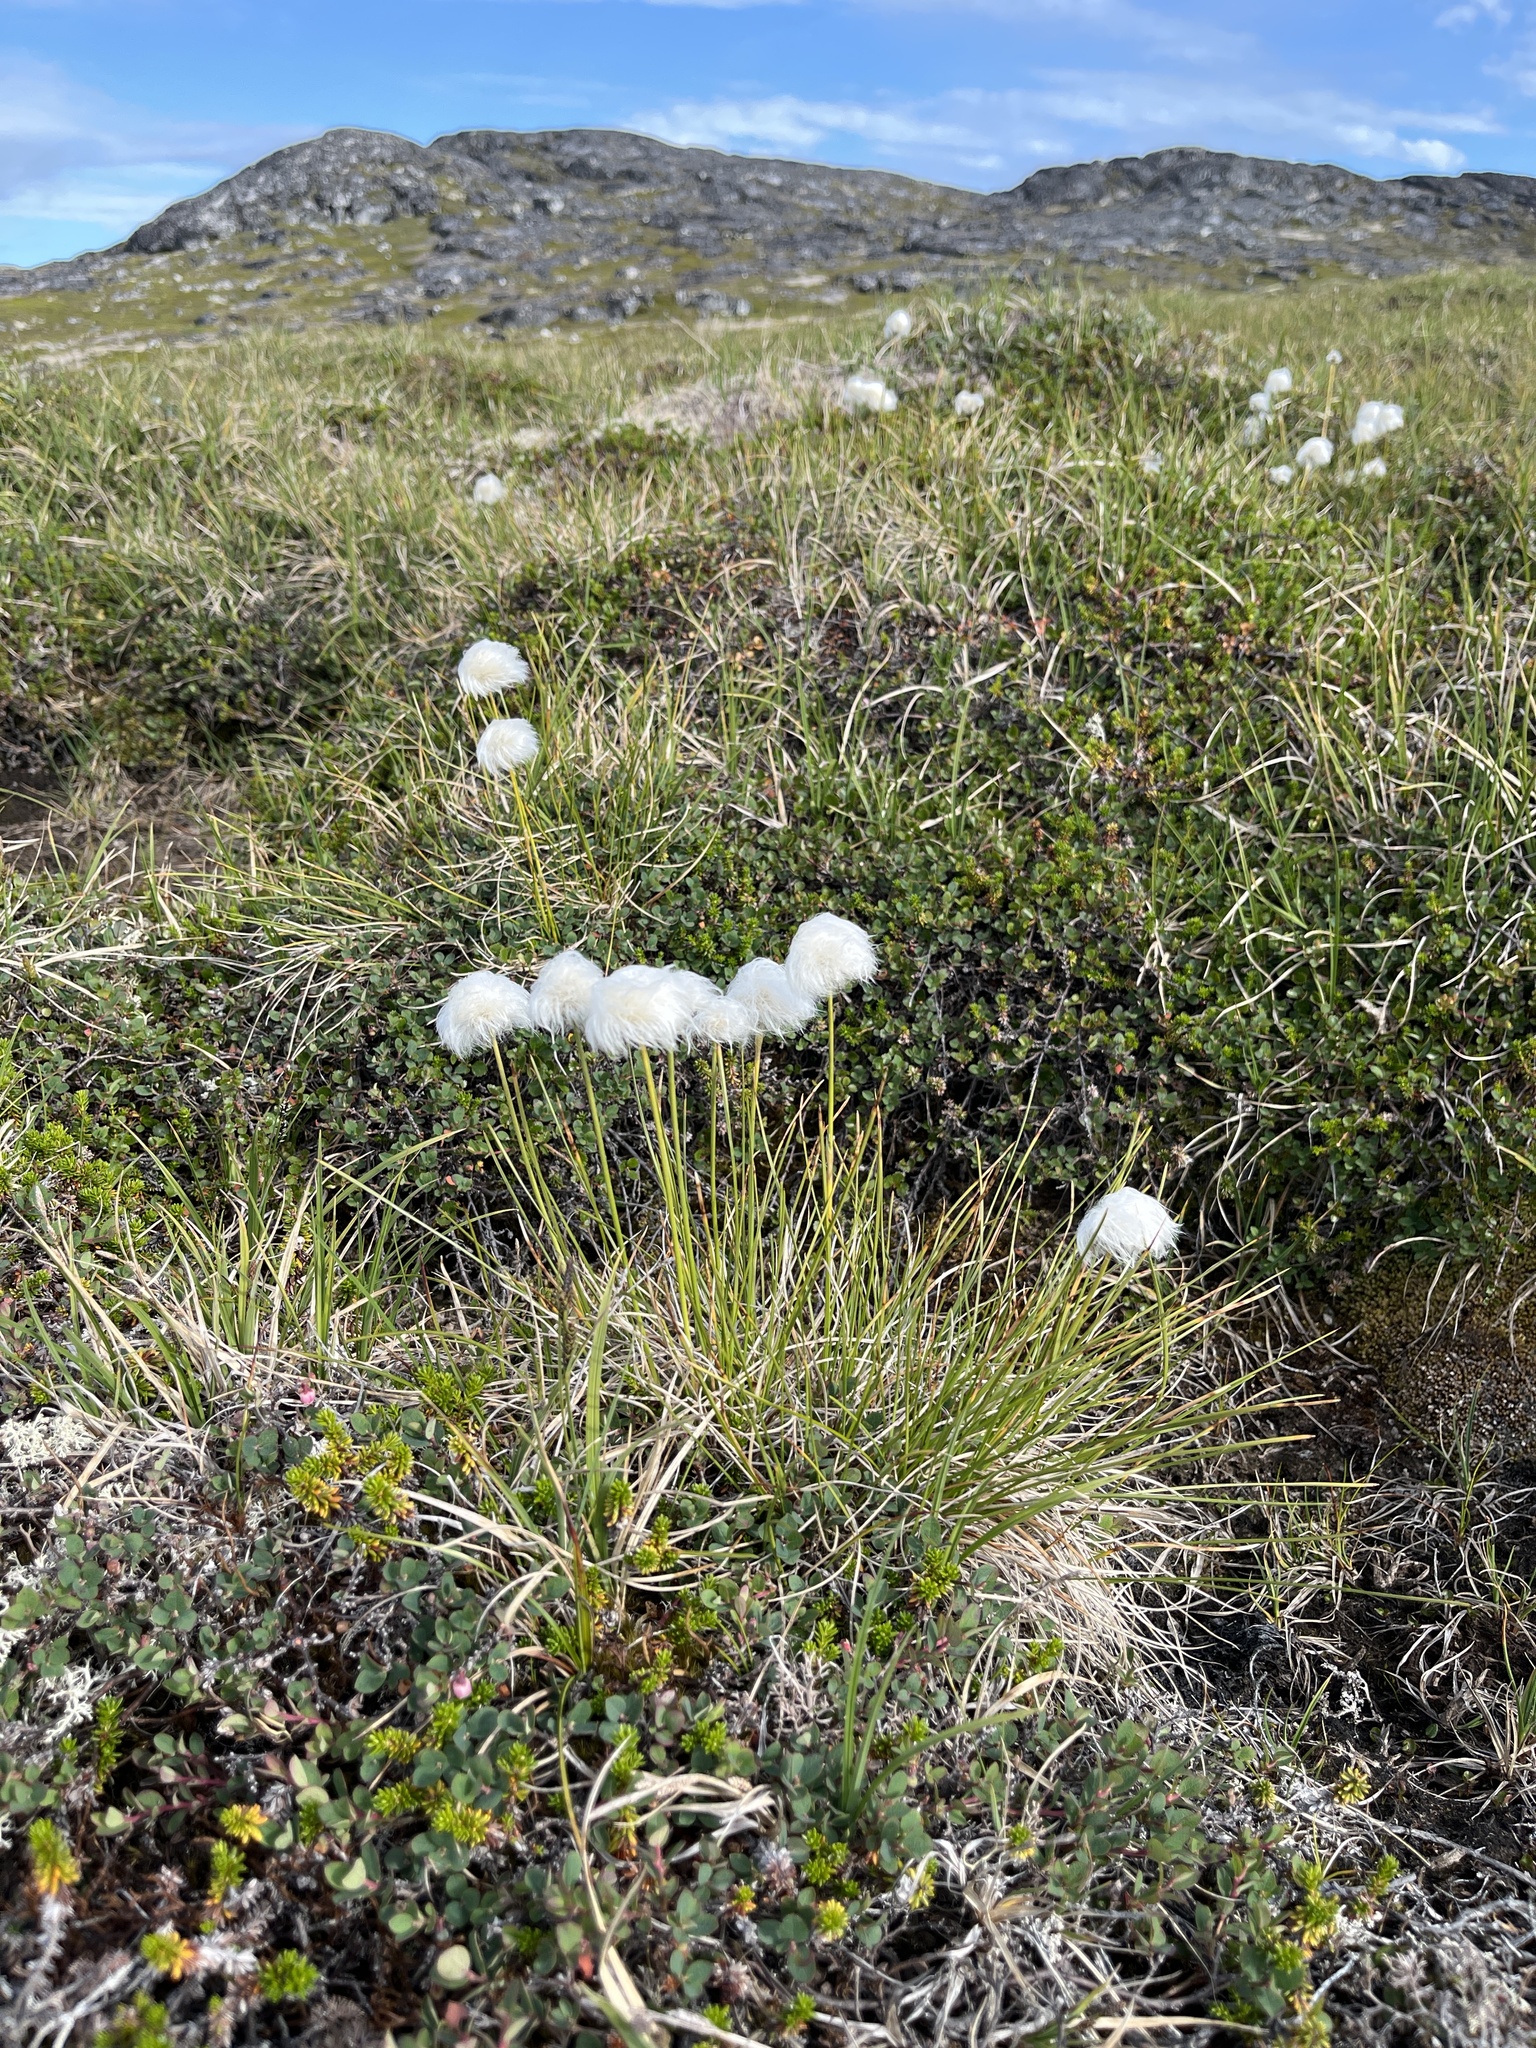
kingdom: Plantae
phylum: Tracheophyta
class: Liliopsida
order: Poales
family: Cyperaceae
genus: Eriophorum
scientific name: Eriophorum vaginatum
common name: Hare's-tail cottongrass
